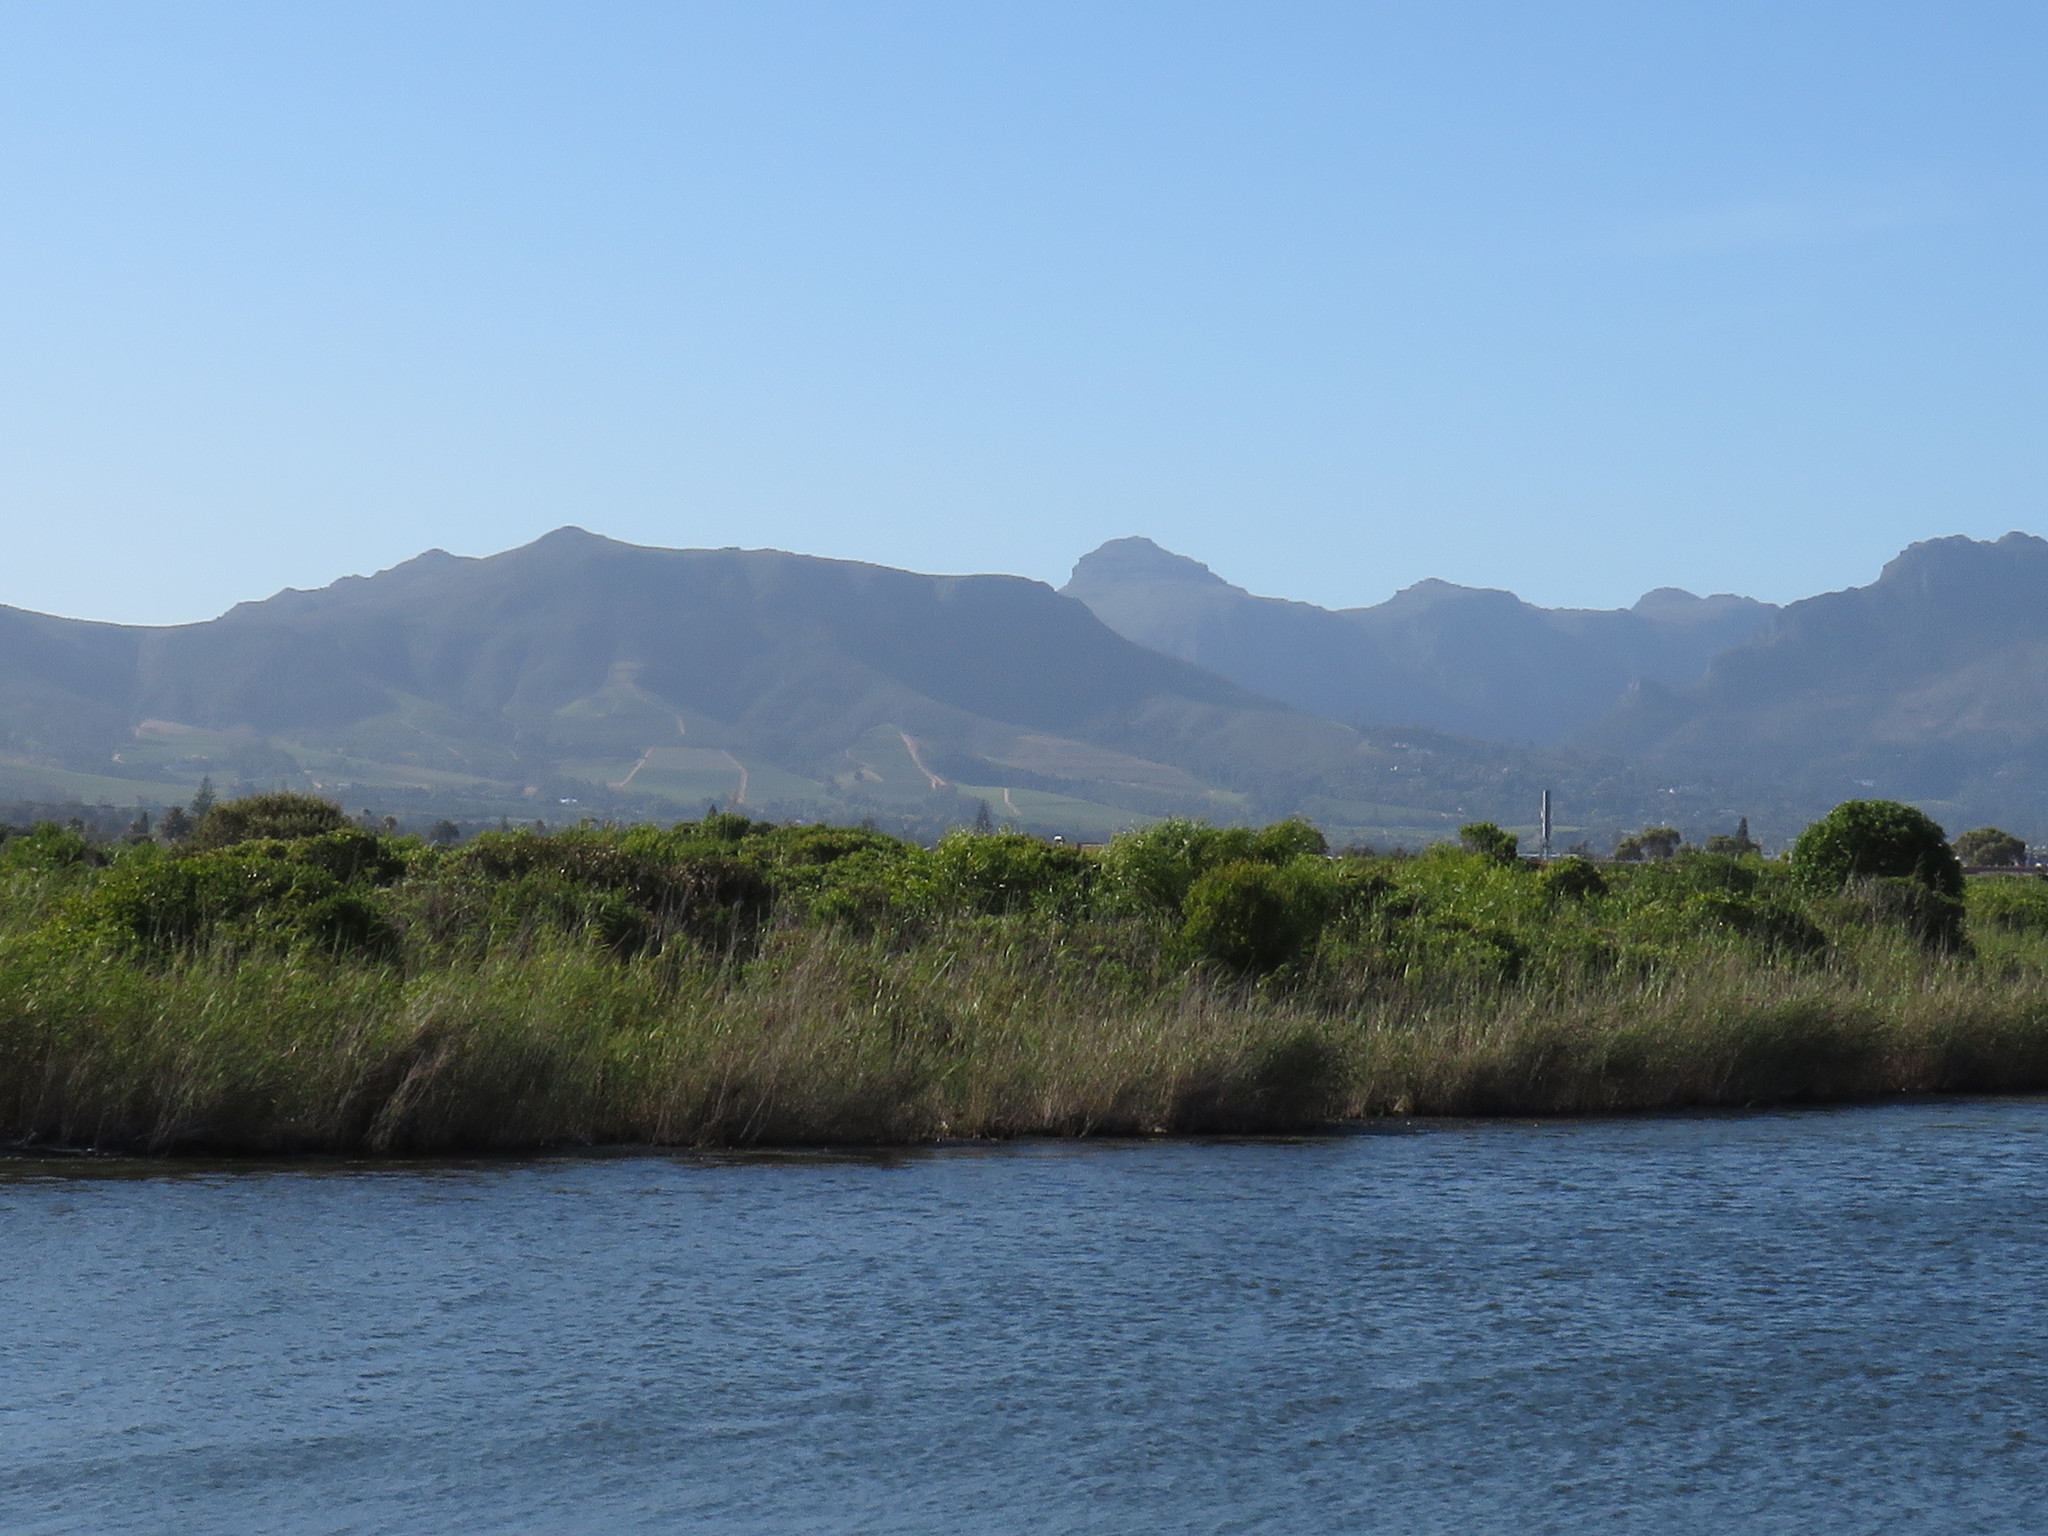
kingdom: Plantae
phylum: Tracheophyta
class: Magnoliopsida
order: Fabales
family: Fabaceae
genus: Acacia
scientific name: Acacia cyclops
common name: Coastal wattle
